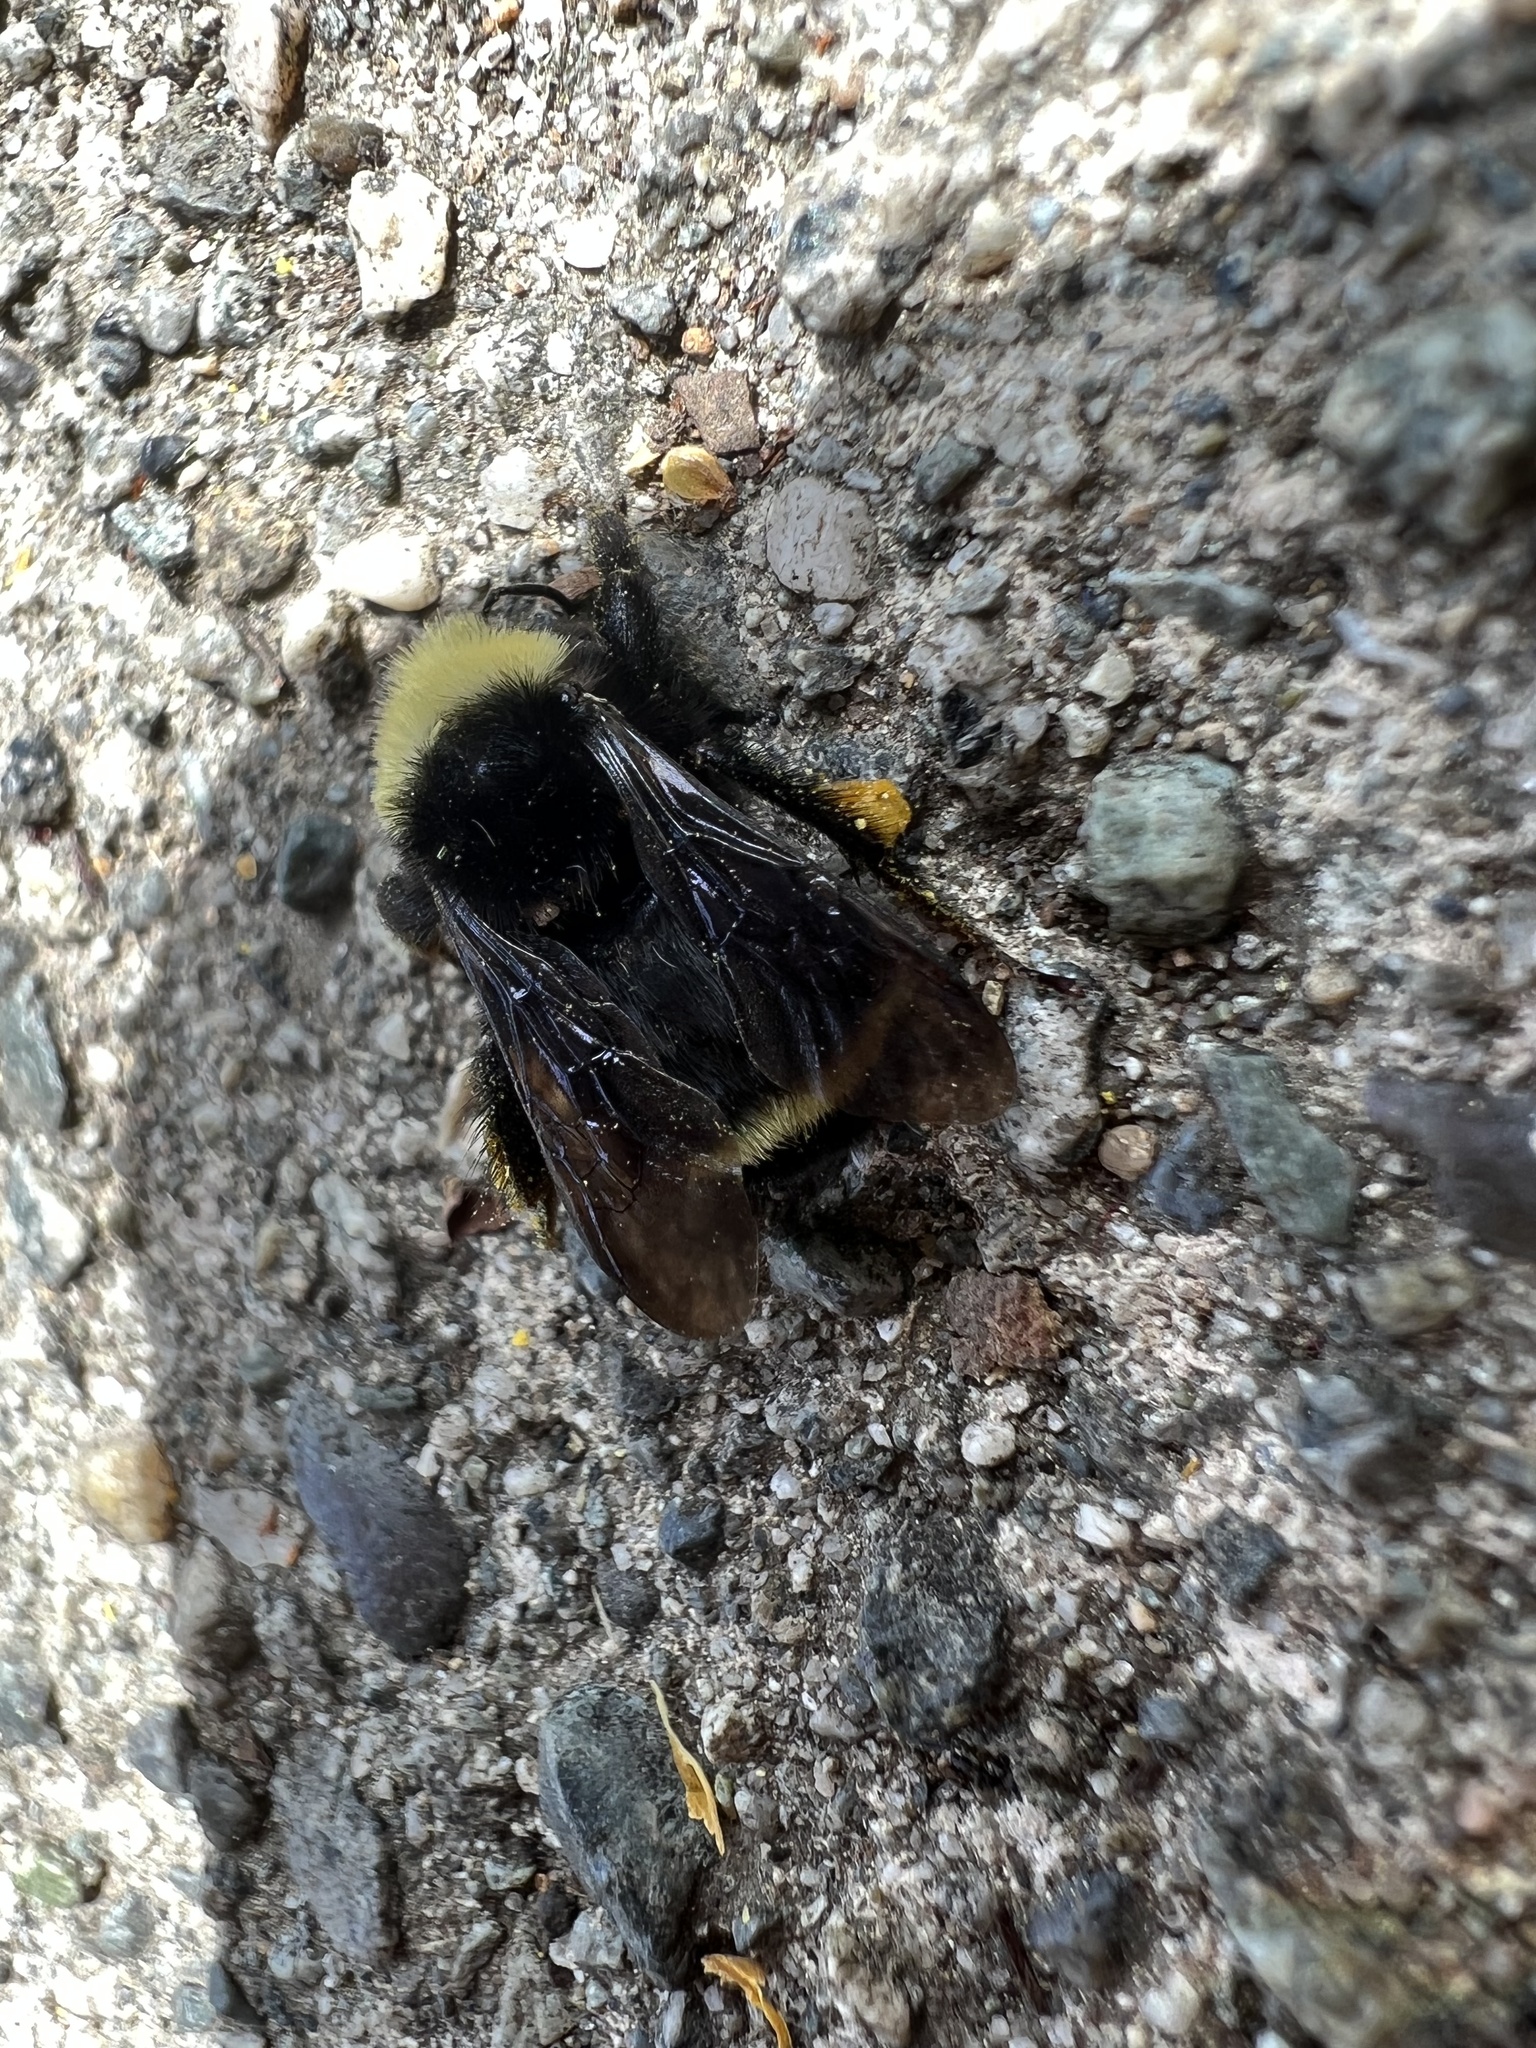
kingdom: Animalia
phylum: Arthropoda
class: Insecta
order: Hymenoptera
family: Apidae
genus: Bombus
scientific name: Bombus vosnesenskii
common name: Vosnesensky bumble bee
